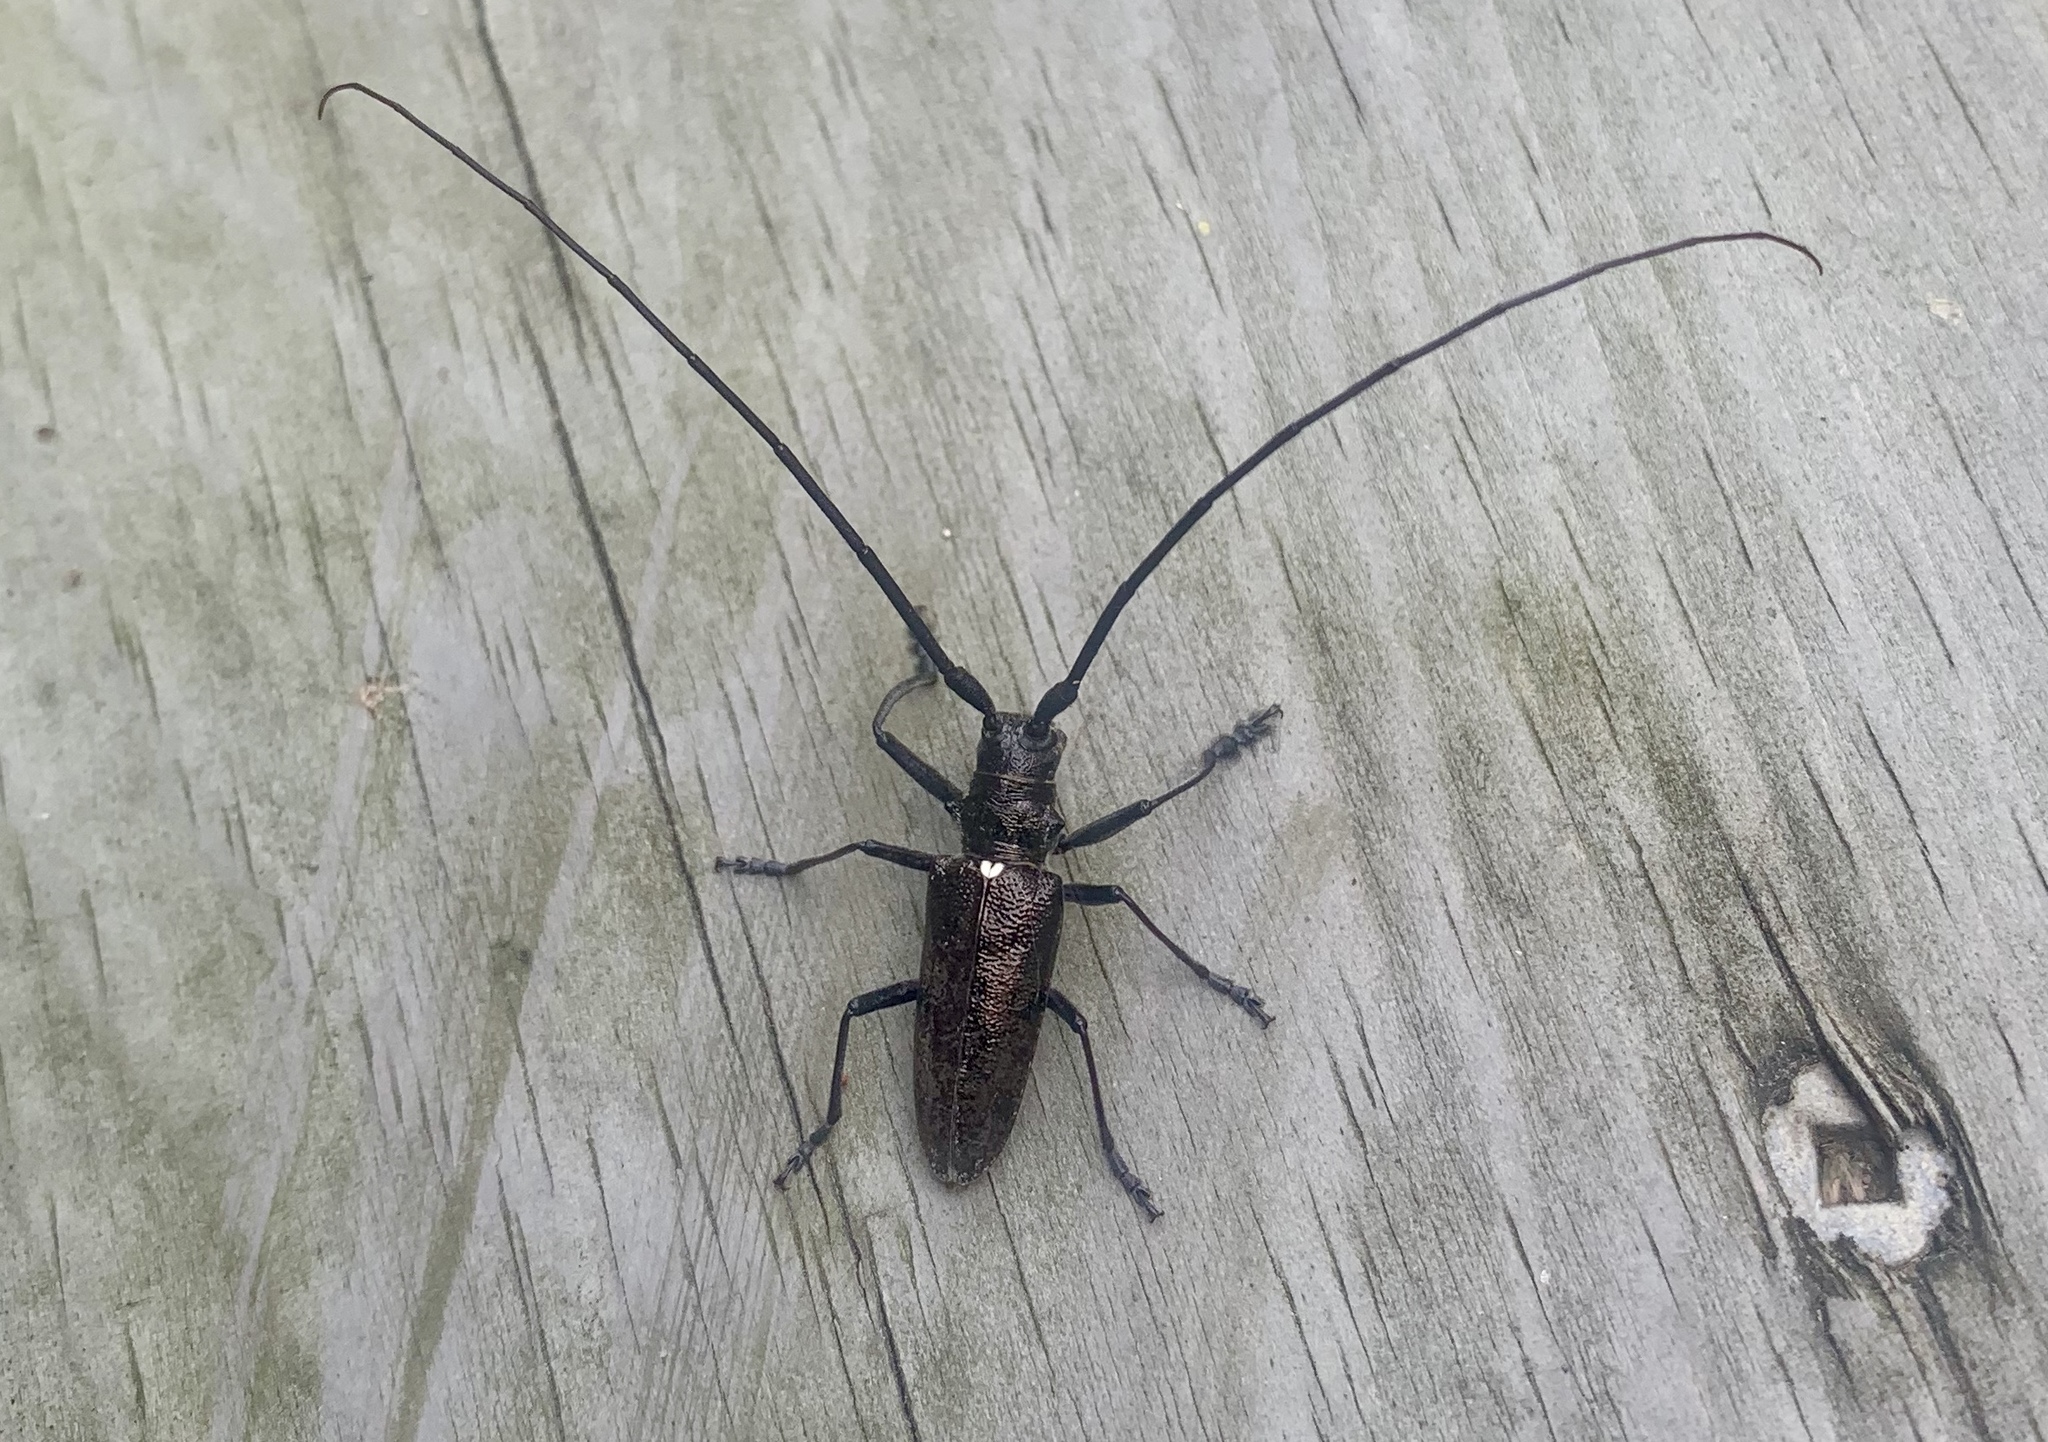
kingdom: Animalia
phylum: Arthropoda
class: Insecta
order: Coleoptera
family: Cerambycidae
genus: Monochamus
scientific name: Monochamus scutellatus
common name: White-spotted sawyer beetle
